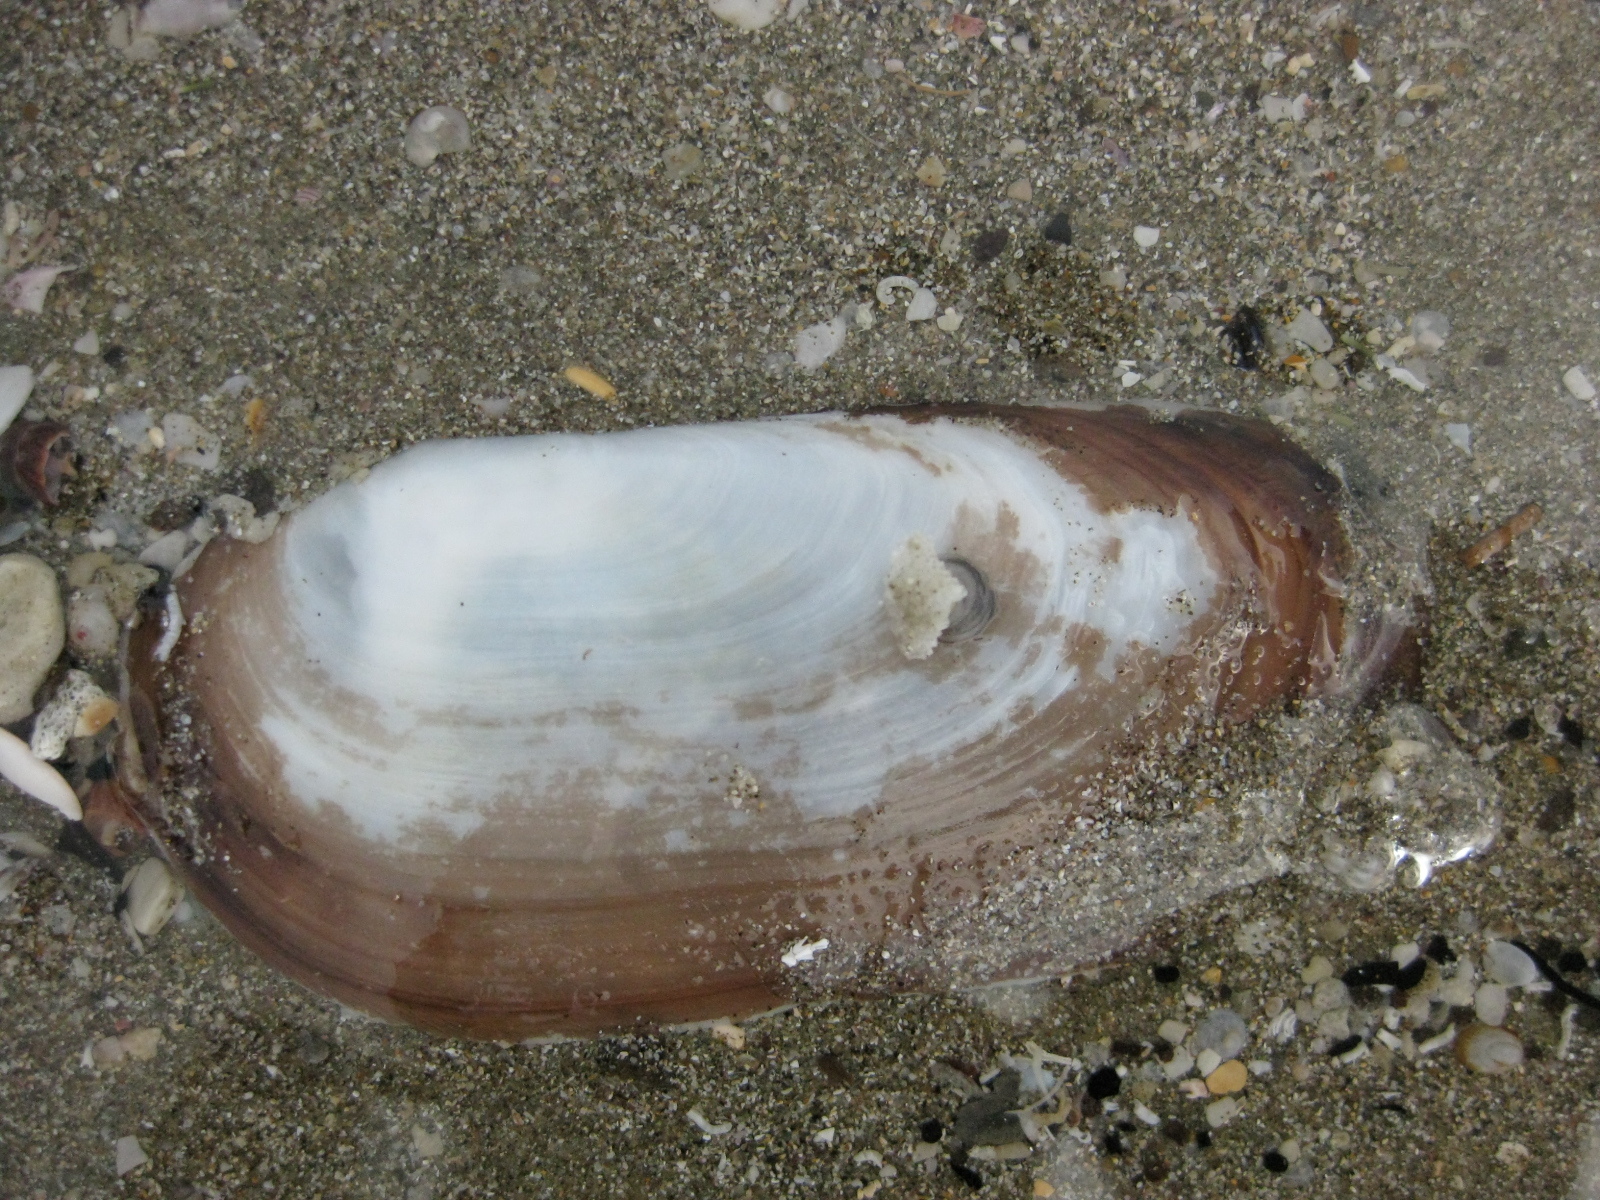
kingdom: Animalia
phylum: Mollusca
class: Bivalvia
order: Venerida
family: Mactridae
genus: Zenatia
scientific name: Zenatia acinaces
